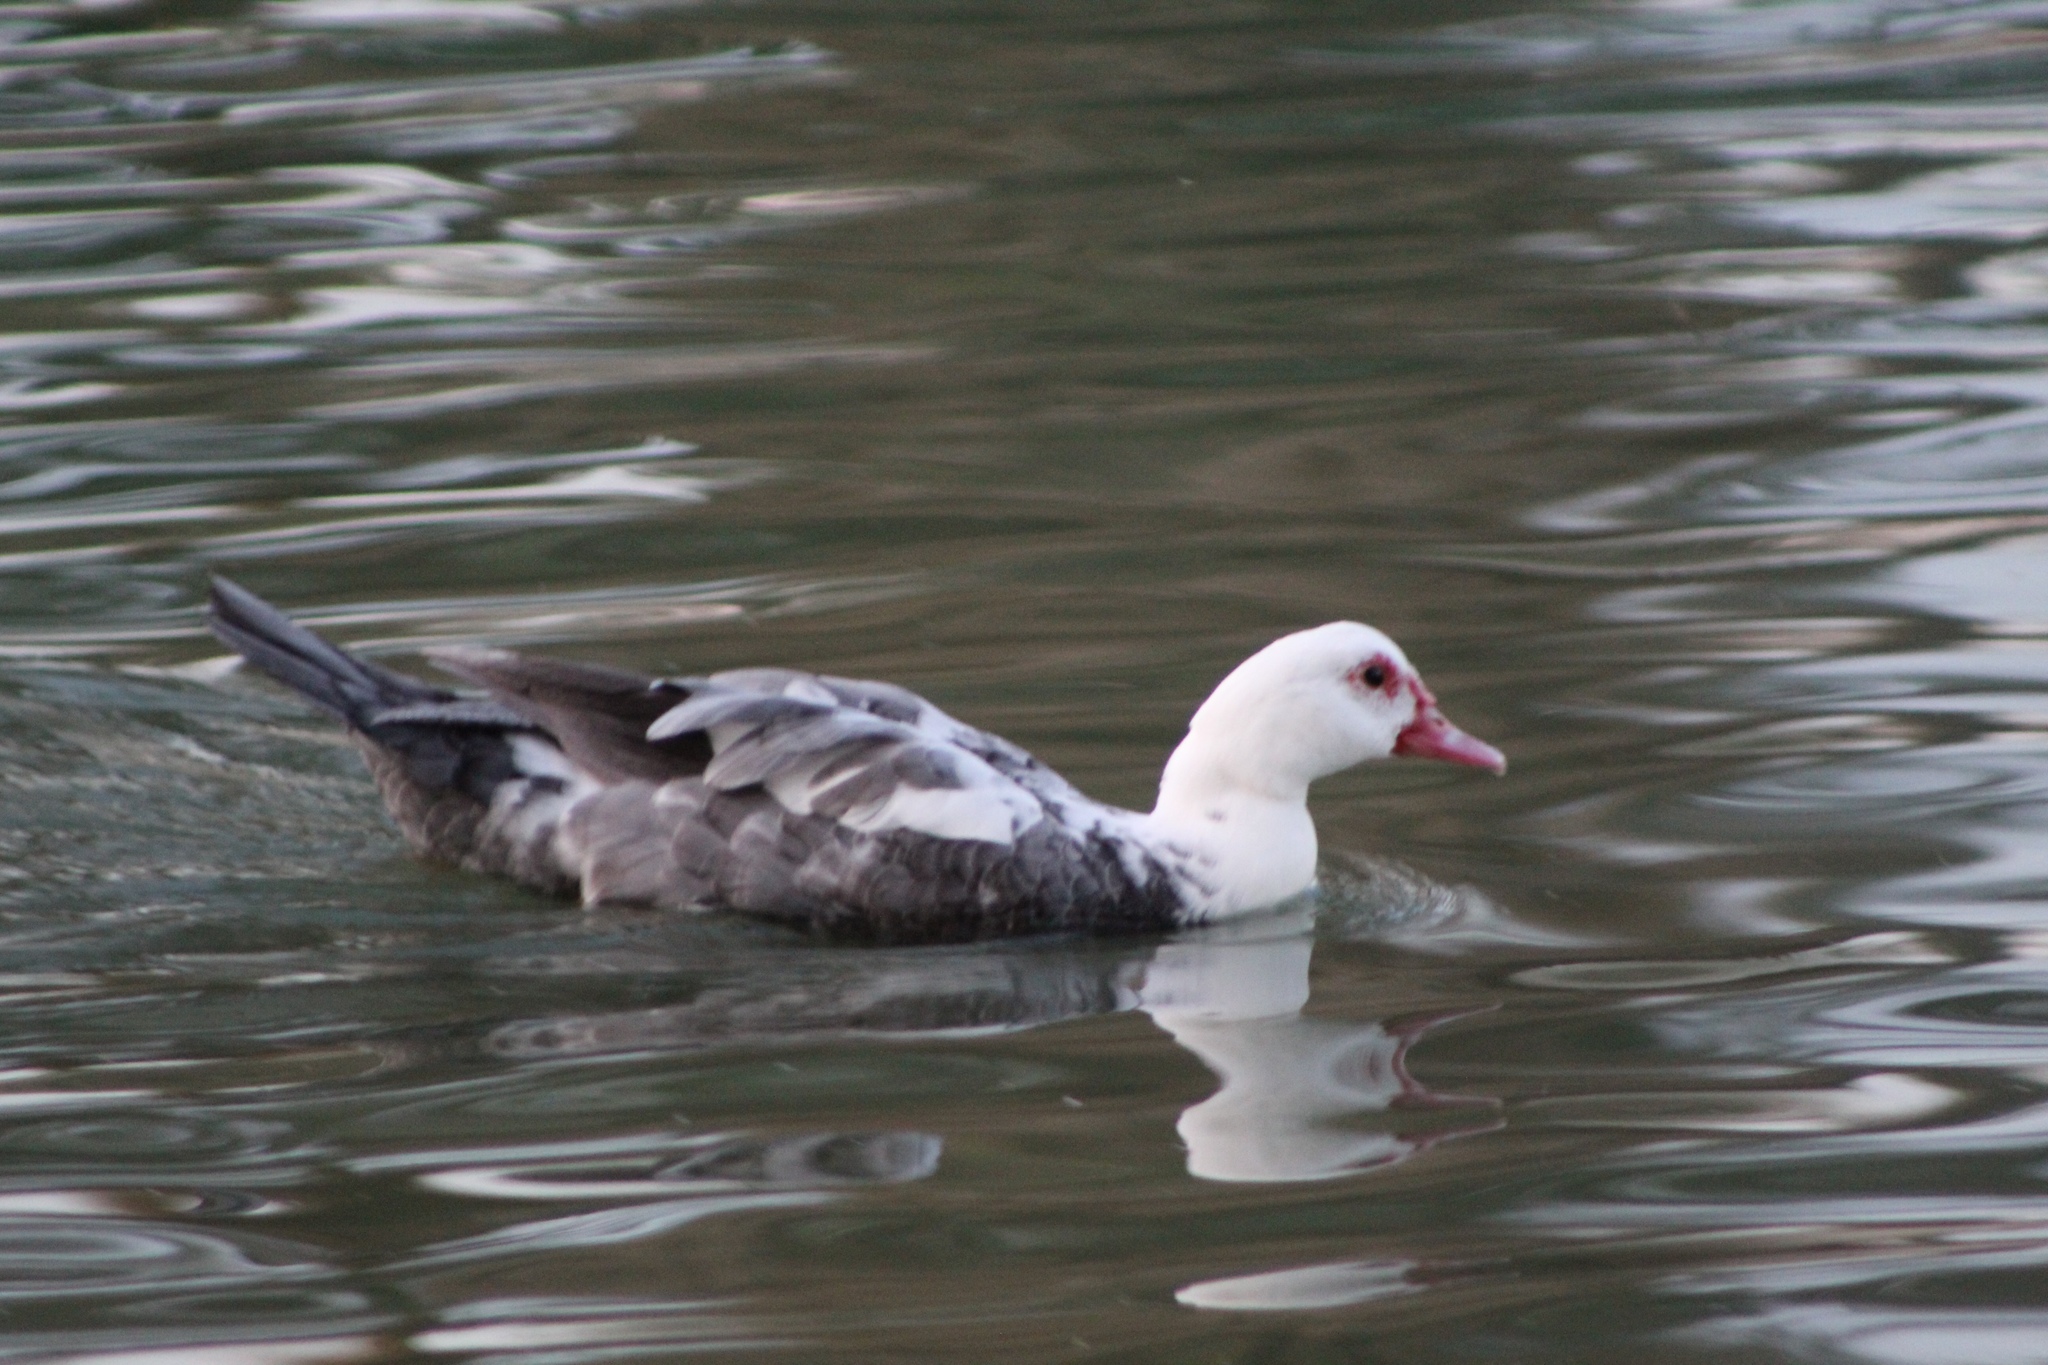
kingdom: Animalia
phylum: Chordata
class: Aves
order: Anseriformes
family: Anatidae
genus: Cairina
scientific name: Cairina moschata
